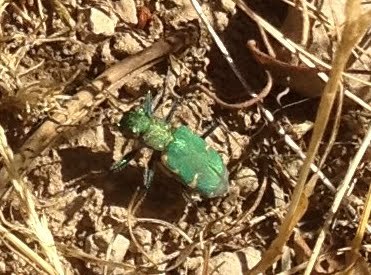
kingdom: Animalia
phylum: Arthropoda
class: Insecta
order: Coleoptera
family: Carabidae
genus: Cicindela
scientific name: Cicindela longilabris
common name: Boreal long-lipped tiger beetle
